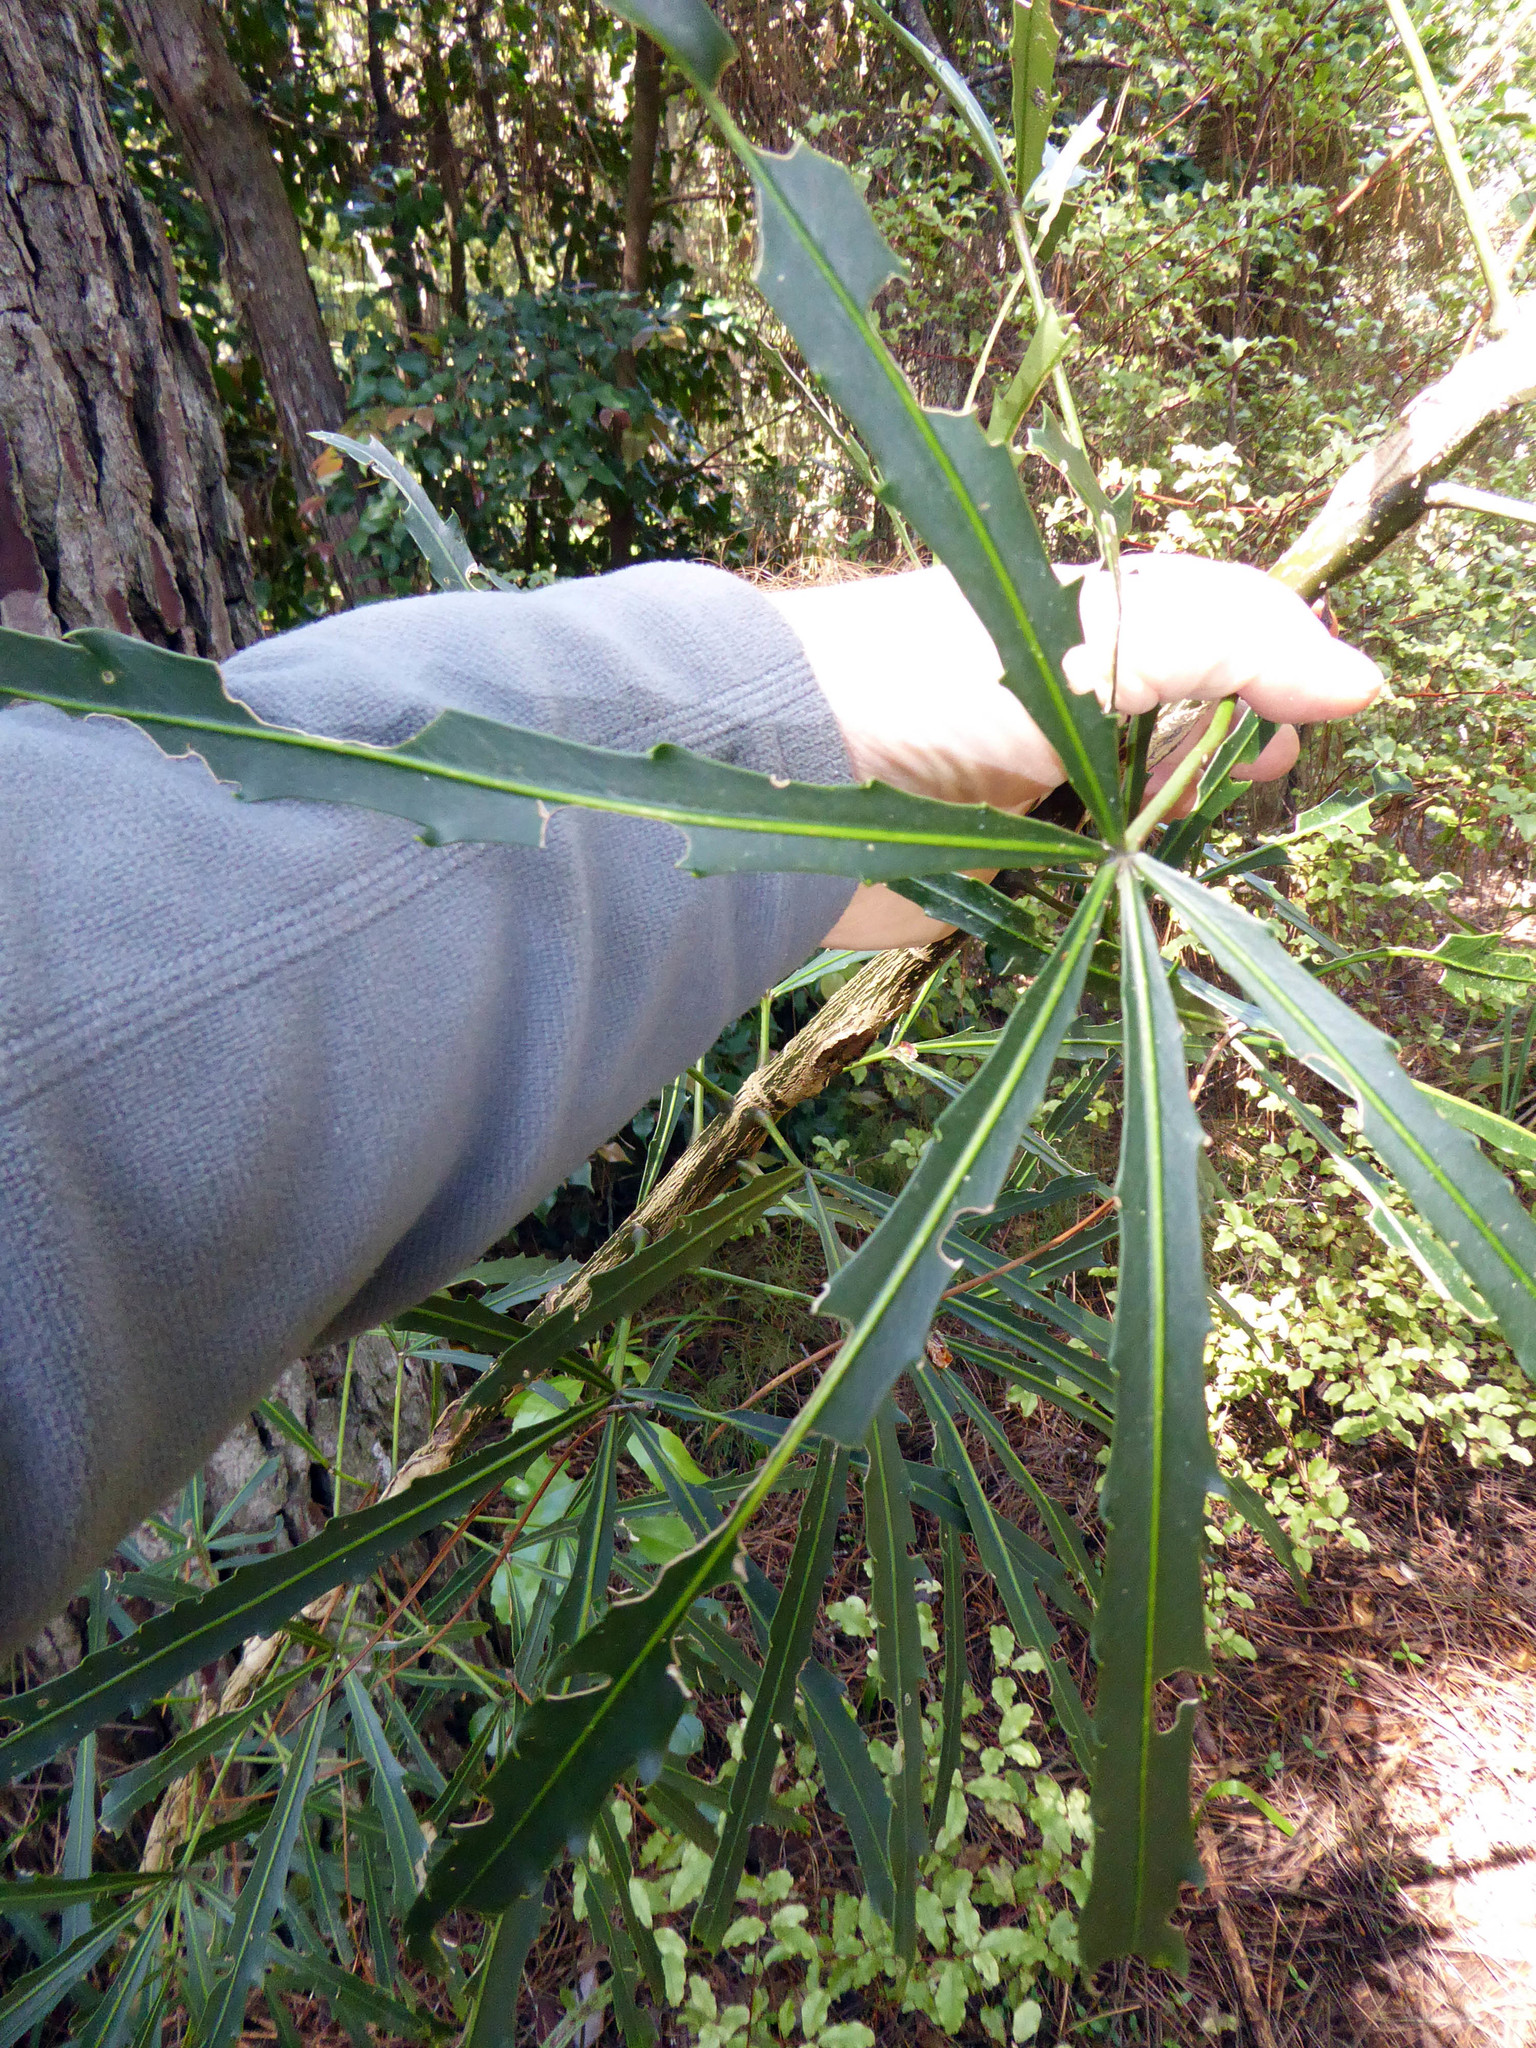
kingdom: Plantae
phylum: Tracheophyta
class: Magnoliopsida
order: Apiales
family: Araliaceae
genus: Pseudopanax
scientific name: Pseudopanax
